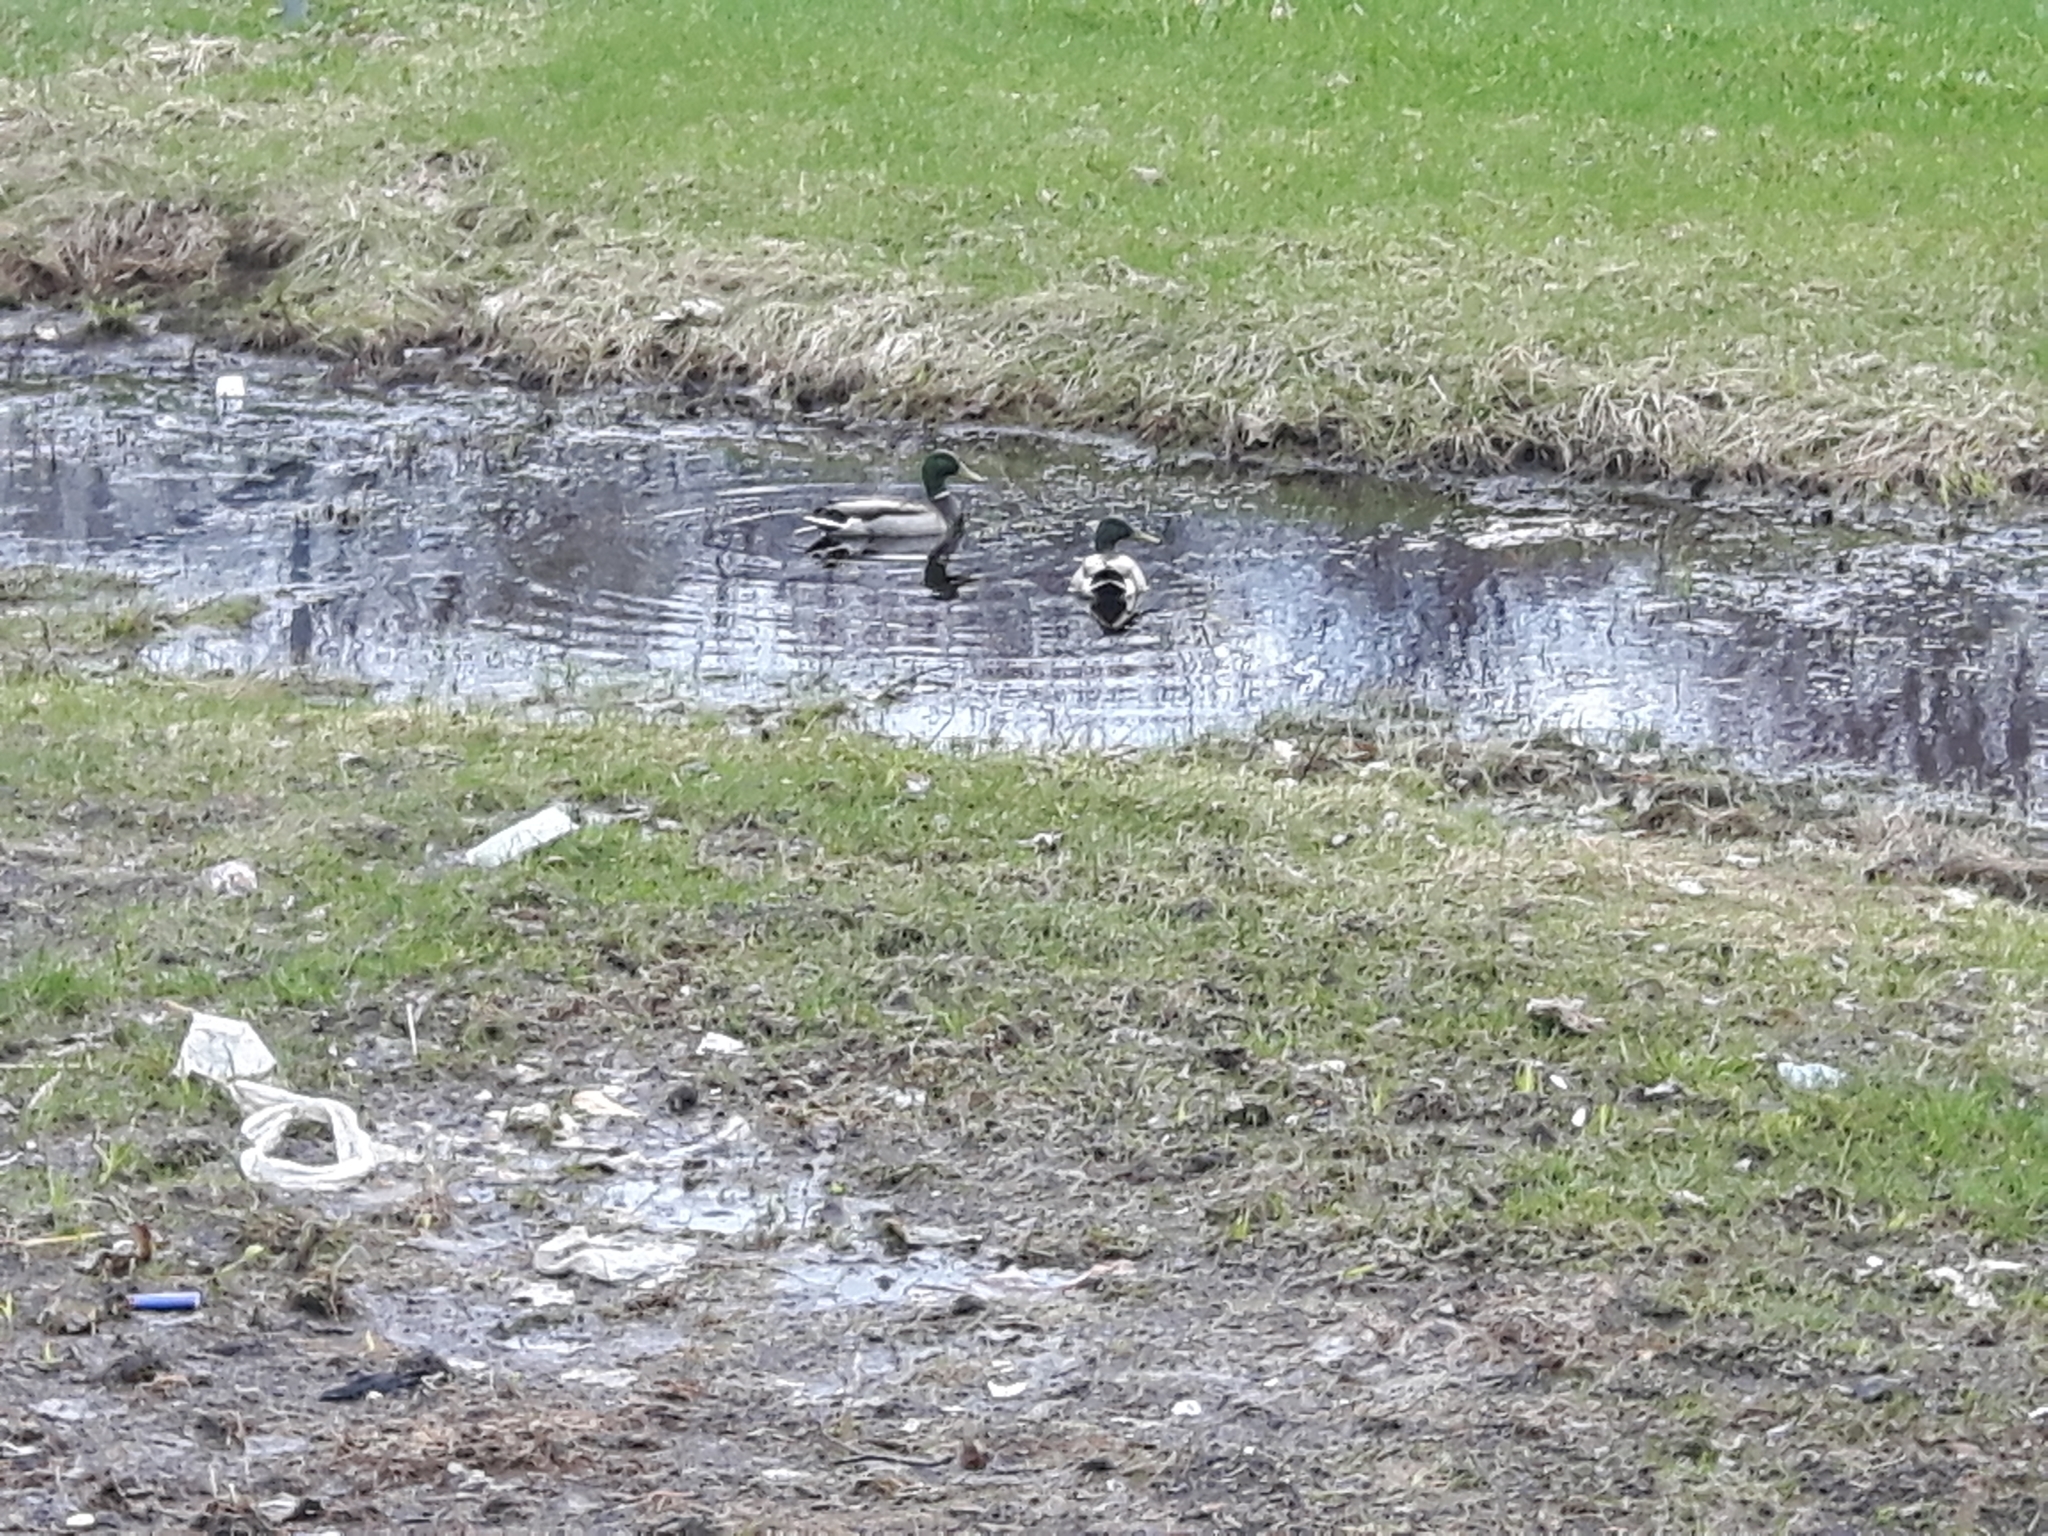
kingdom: Animalia
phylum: Chordata
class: Aves
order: Anseriformes
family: Anatidae
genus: Anas
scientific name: Anas platyrhynchos
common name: Mallard
